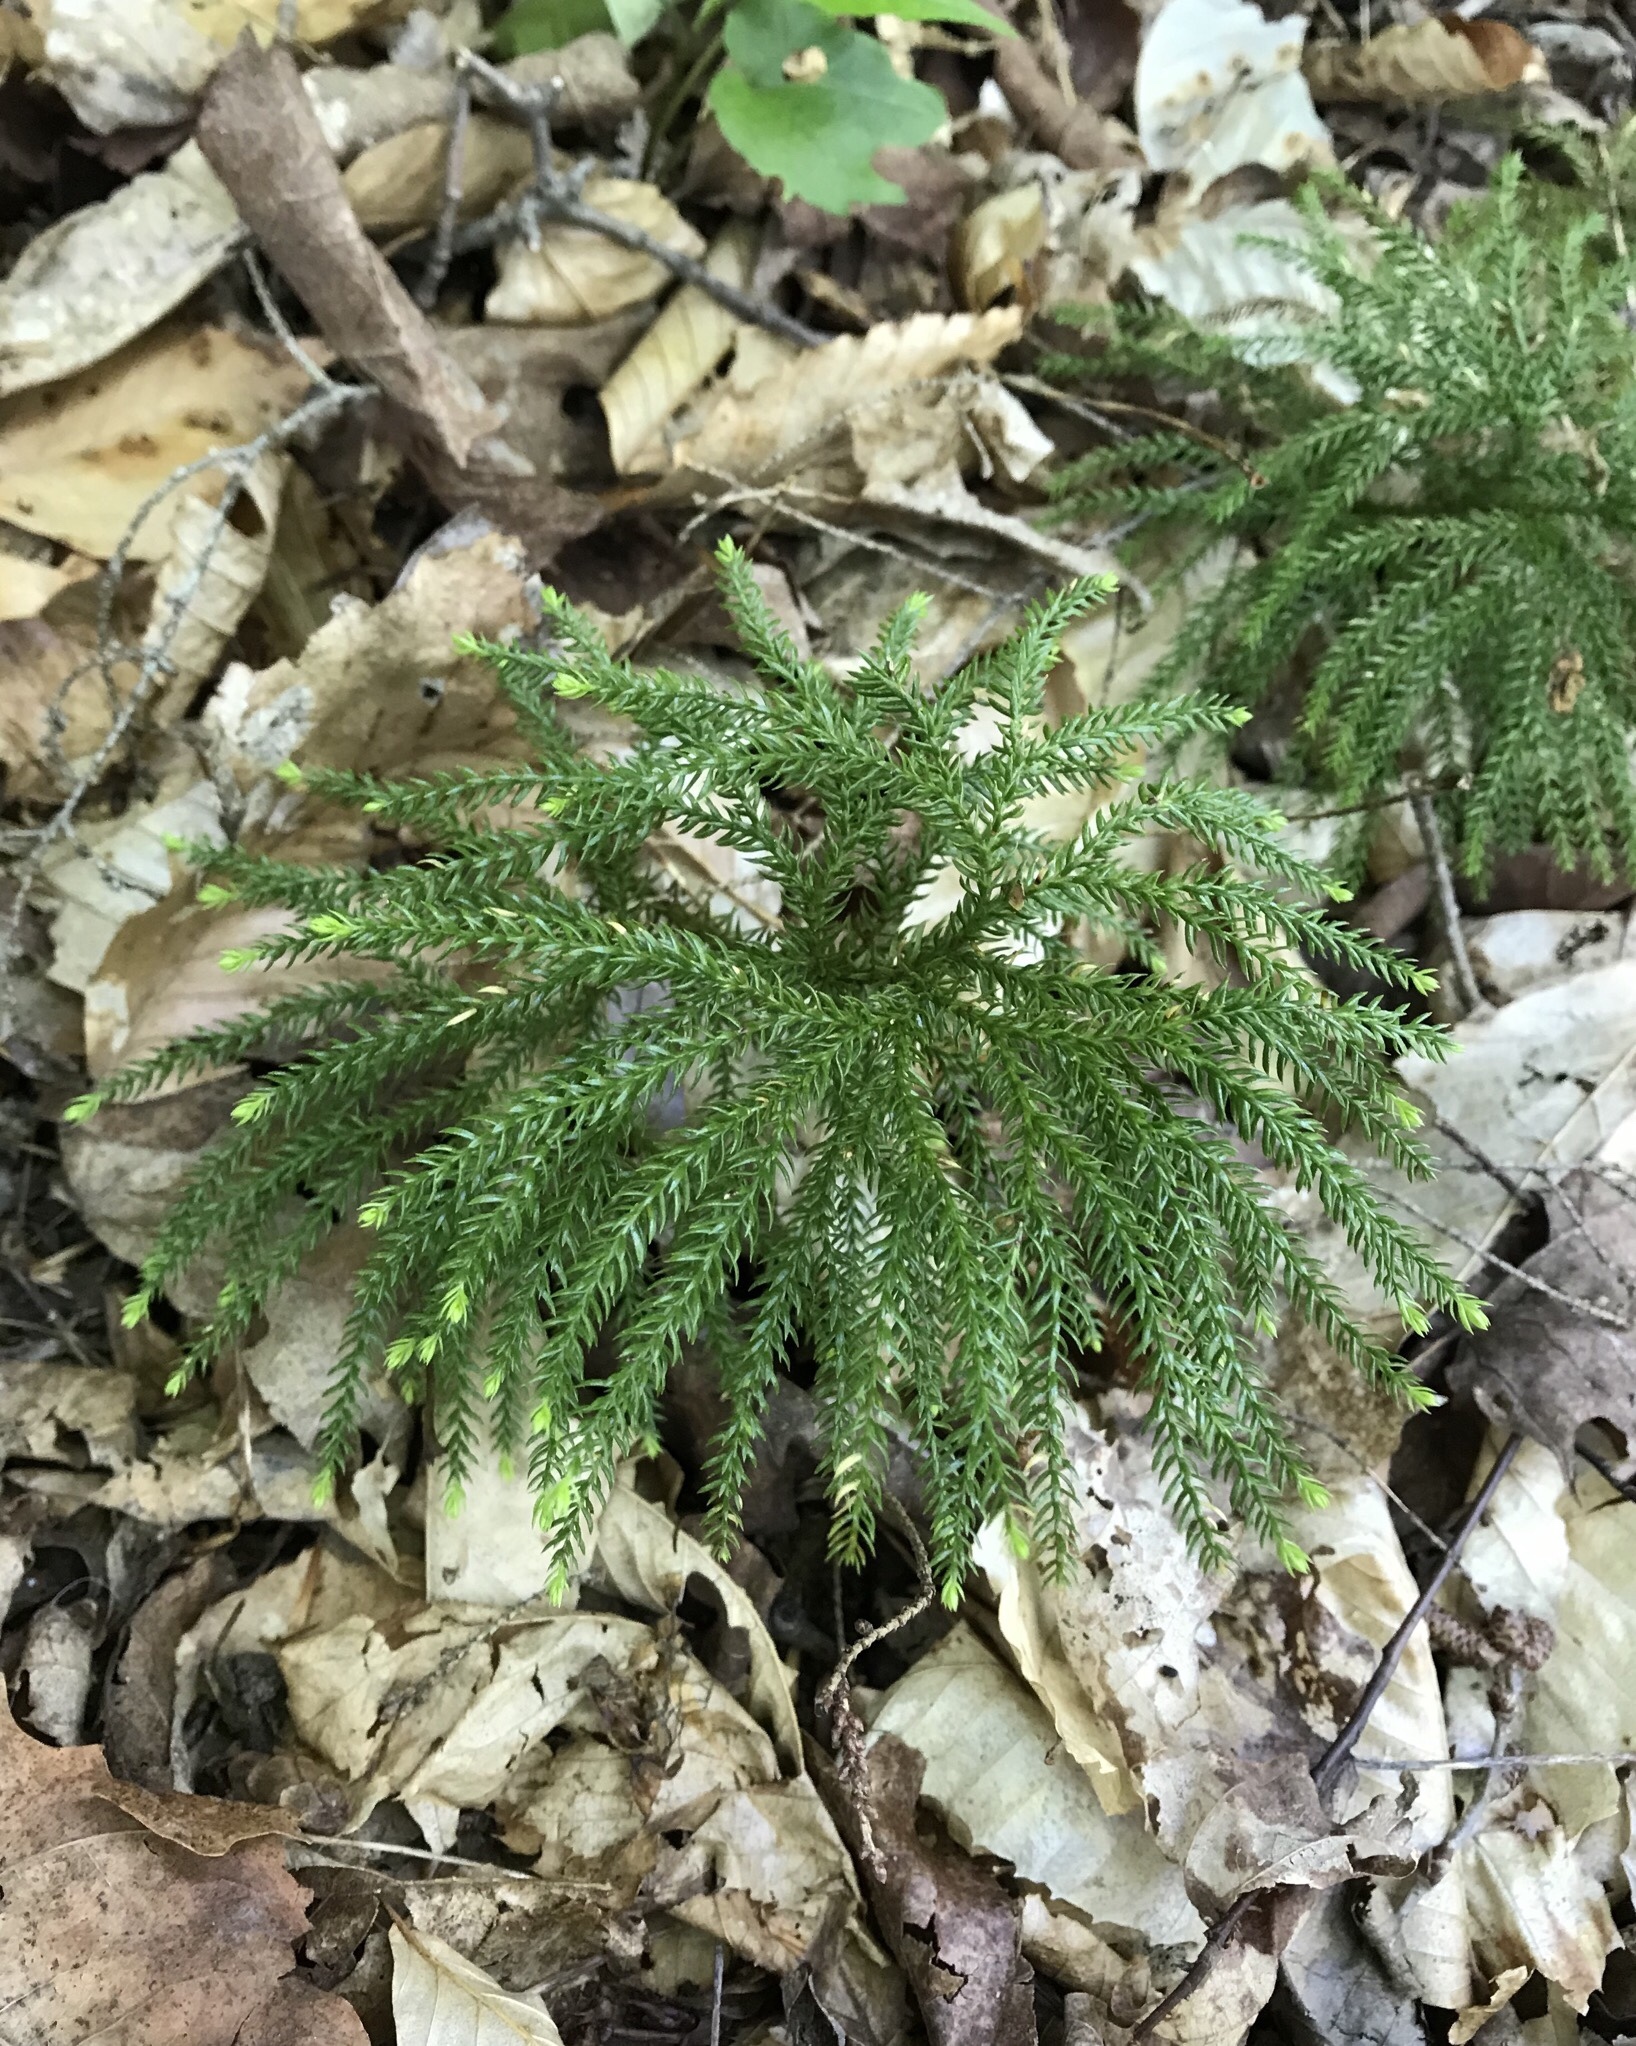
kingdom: Plantae
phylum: Tracheophyta
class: Lycopodiopsida
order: Lycopodiales
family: Lycopodiaceae
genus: Dendrolycopodium
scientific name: Dendrolycopodium dendroideum
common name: Northern tree-clubmoss
